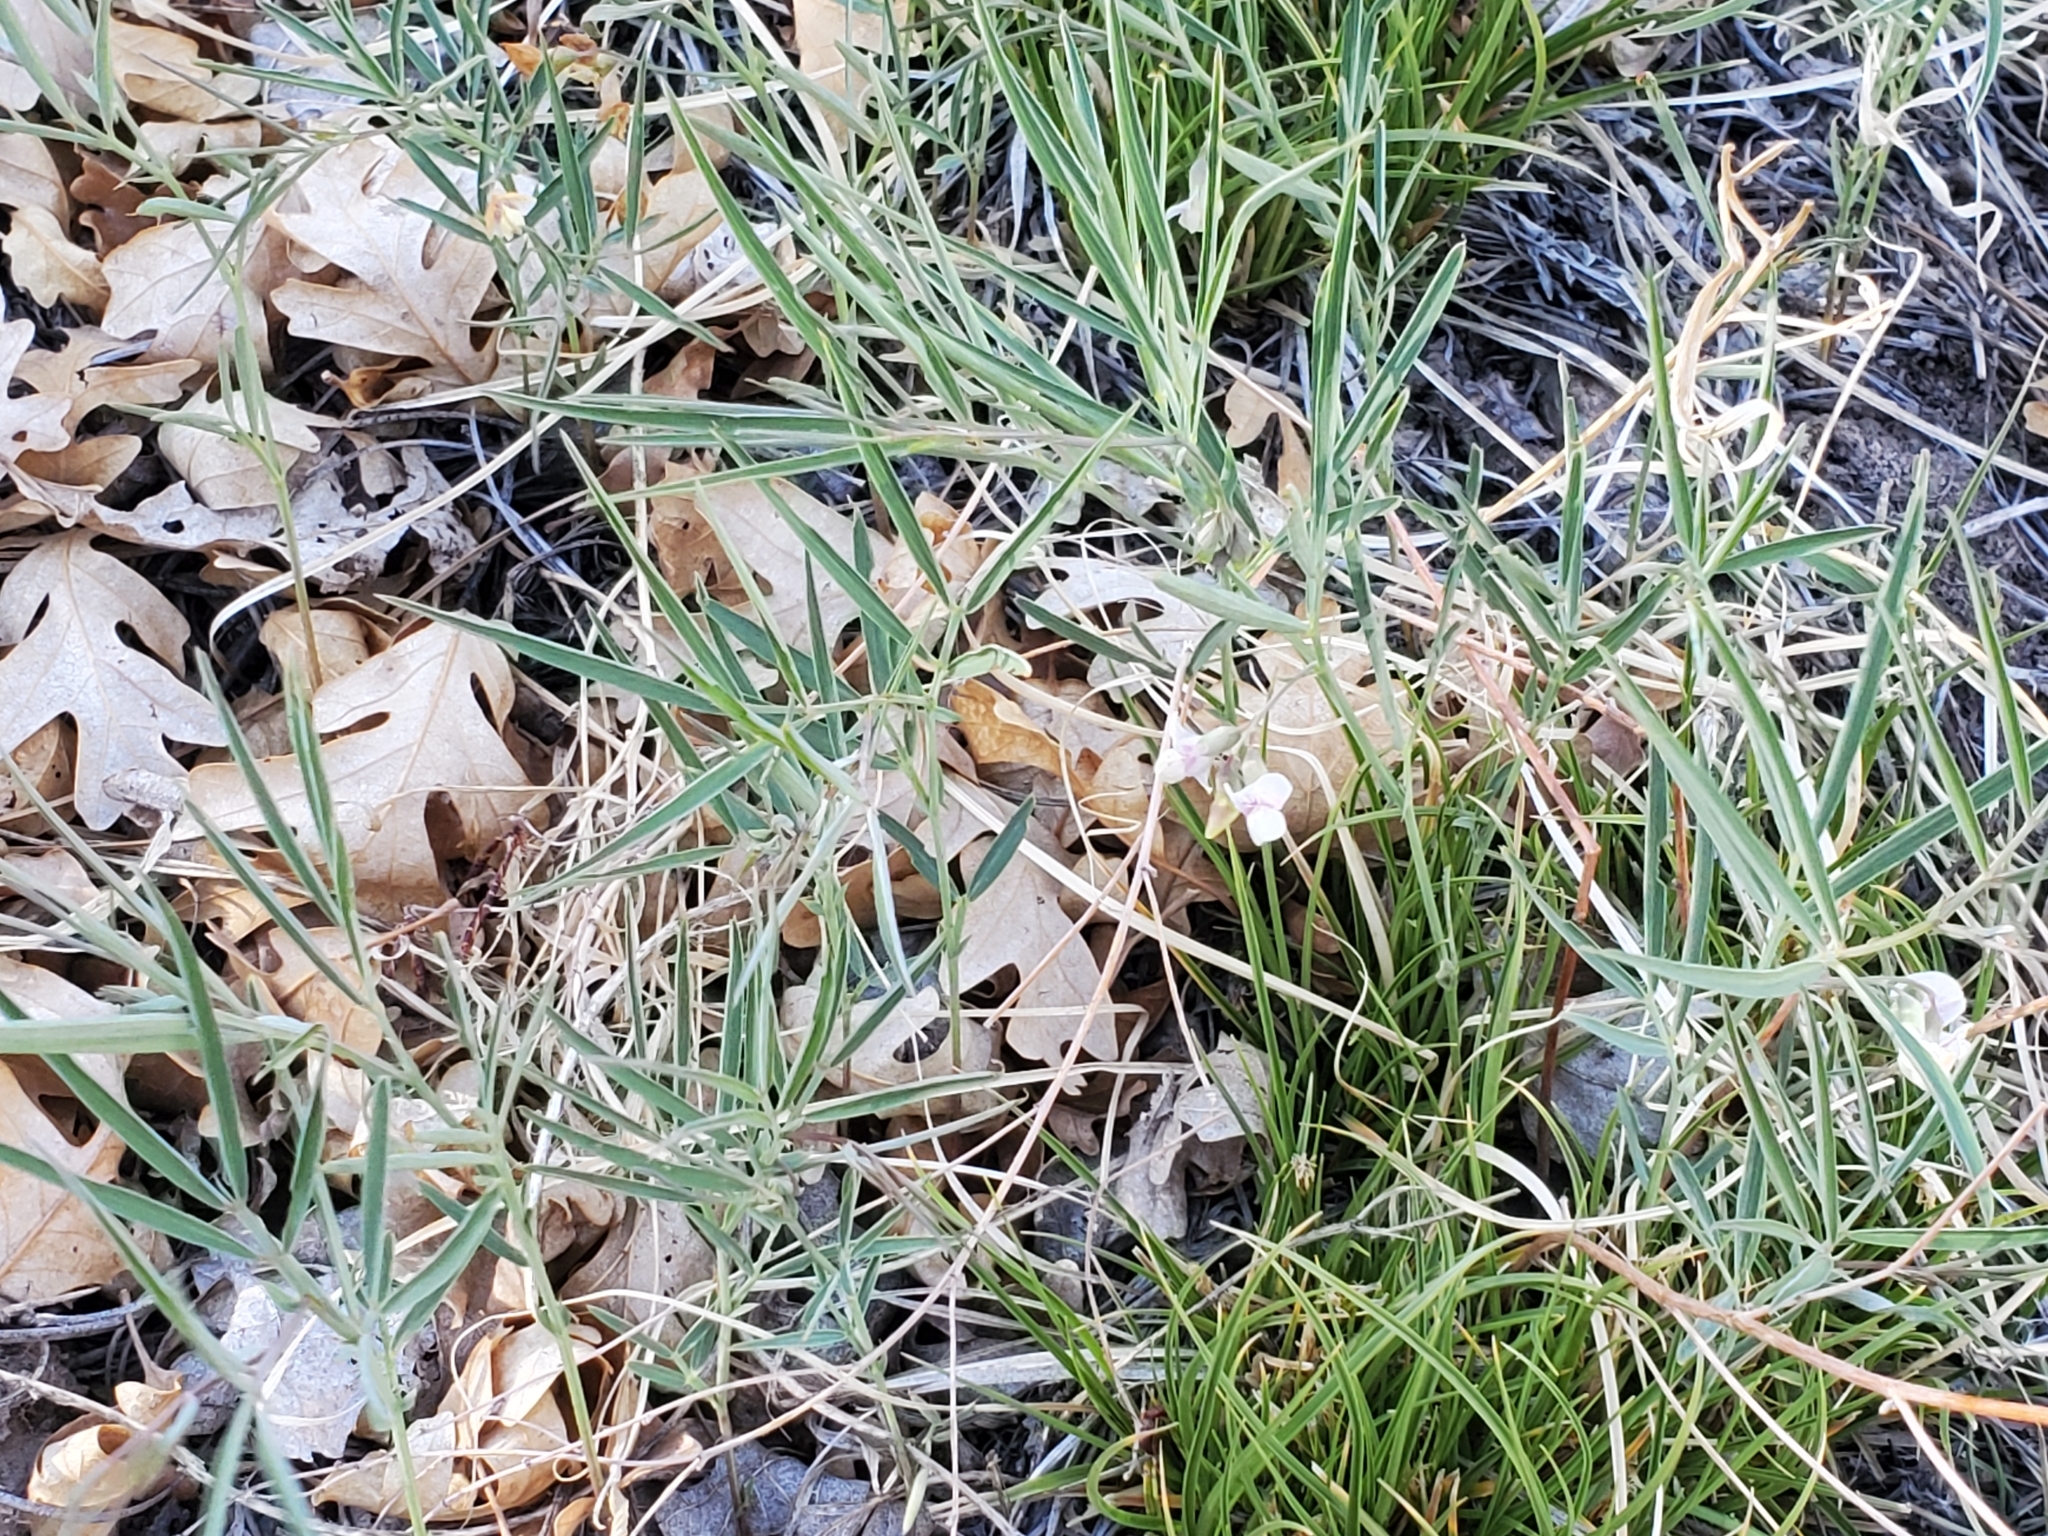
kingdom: Plantae
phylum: Tracheophyta
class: Magnoliopsida
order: Fabales
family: Fabaceae
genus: Lathyrus
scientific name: Lathyrus lanszwertii
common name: Lanszwert's vetchling
